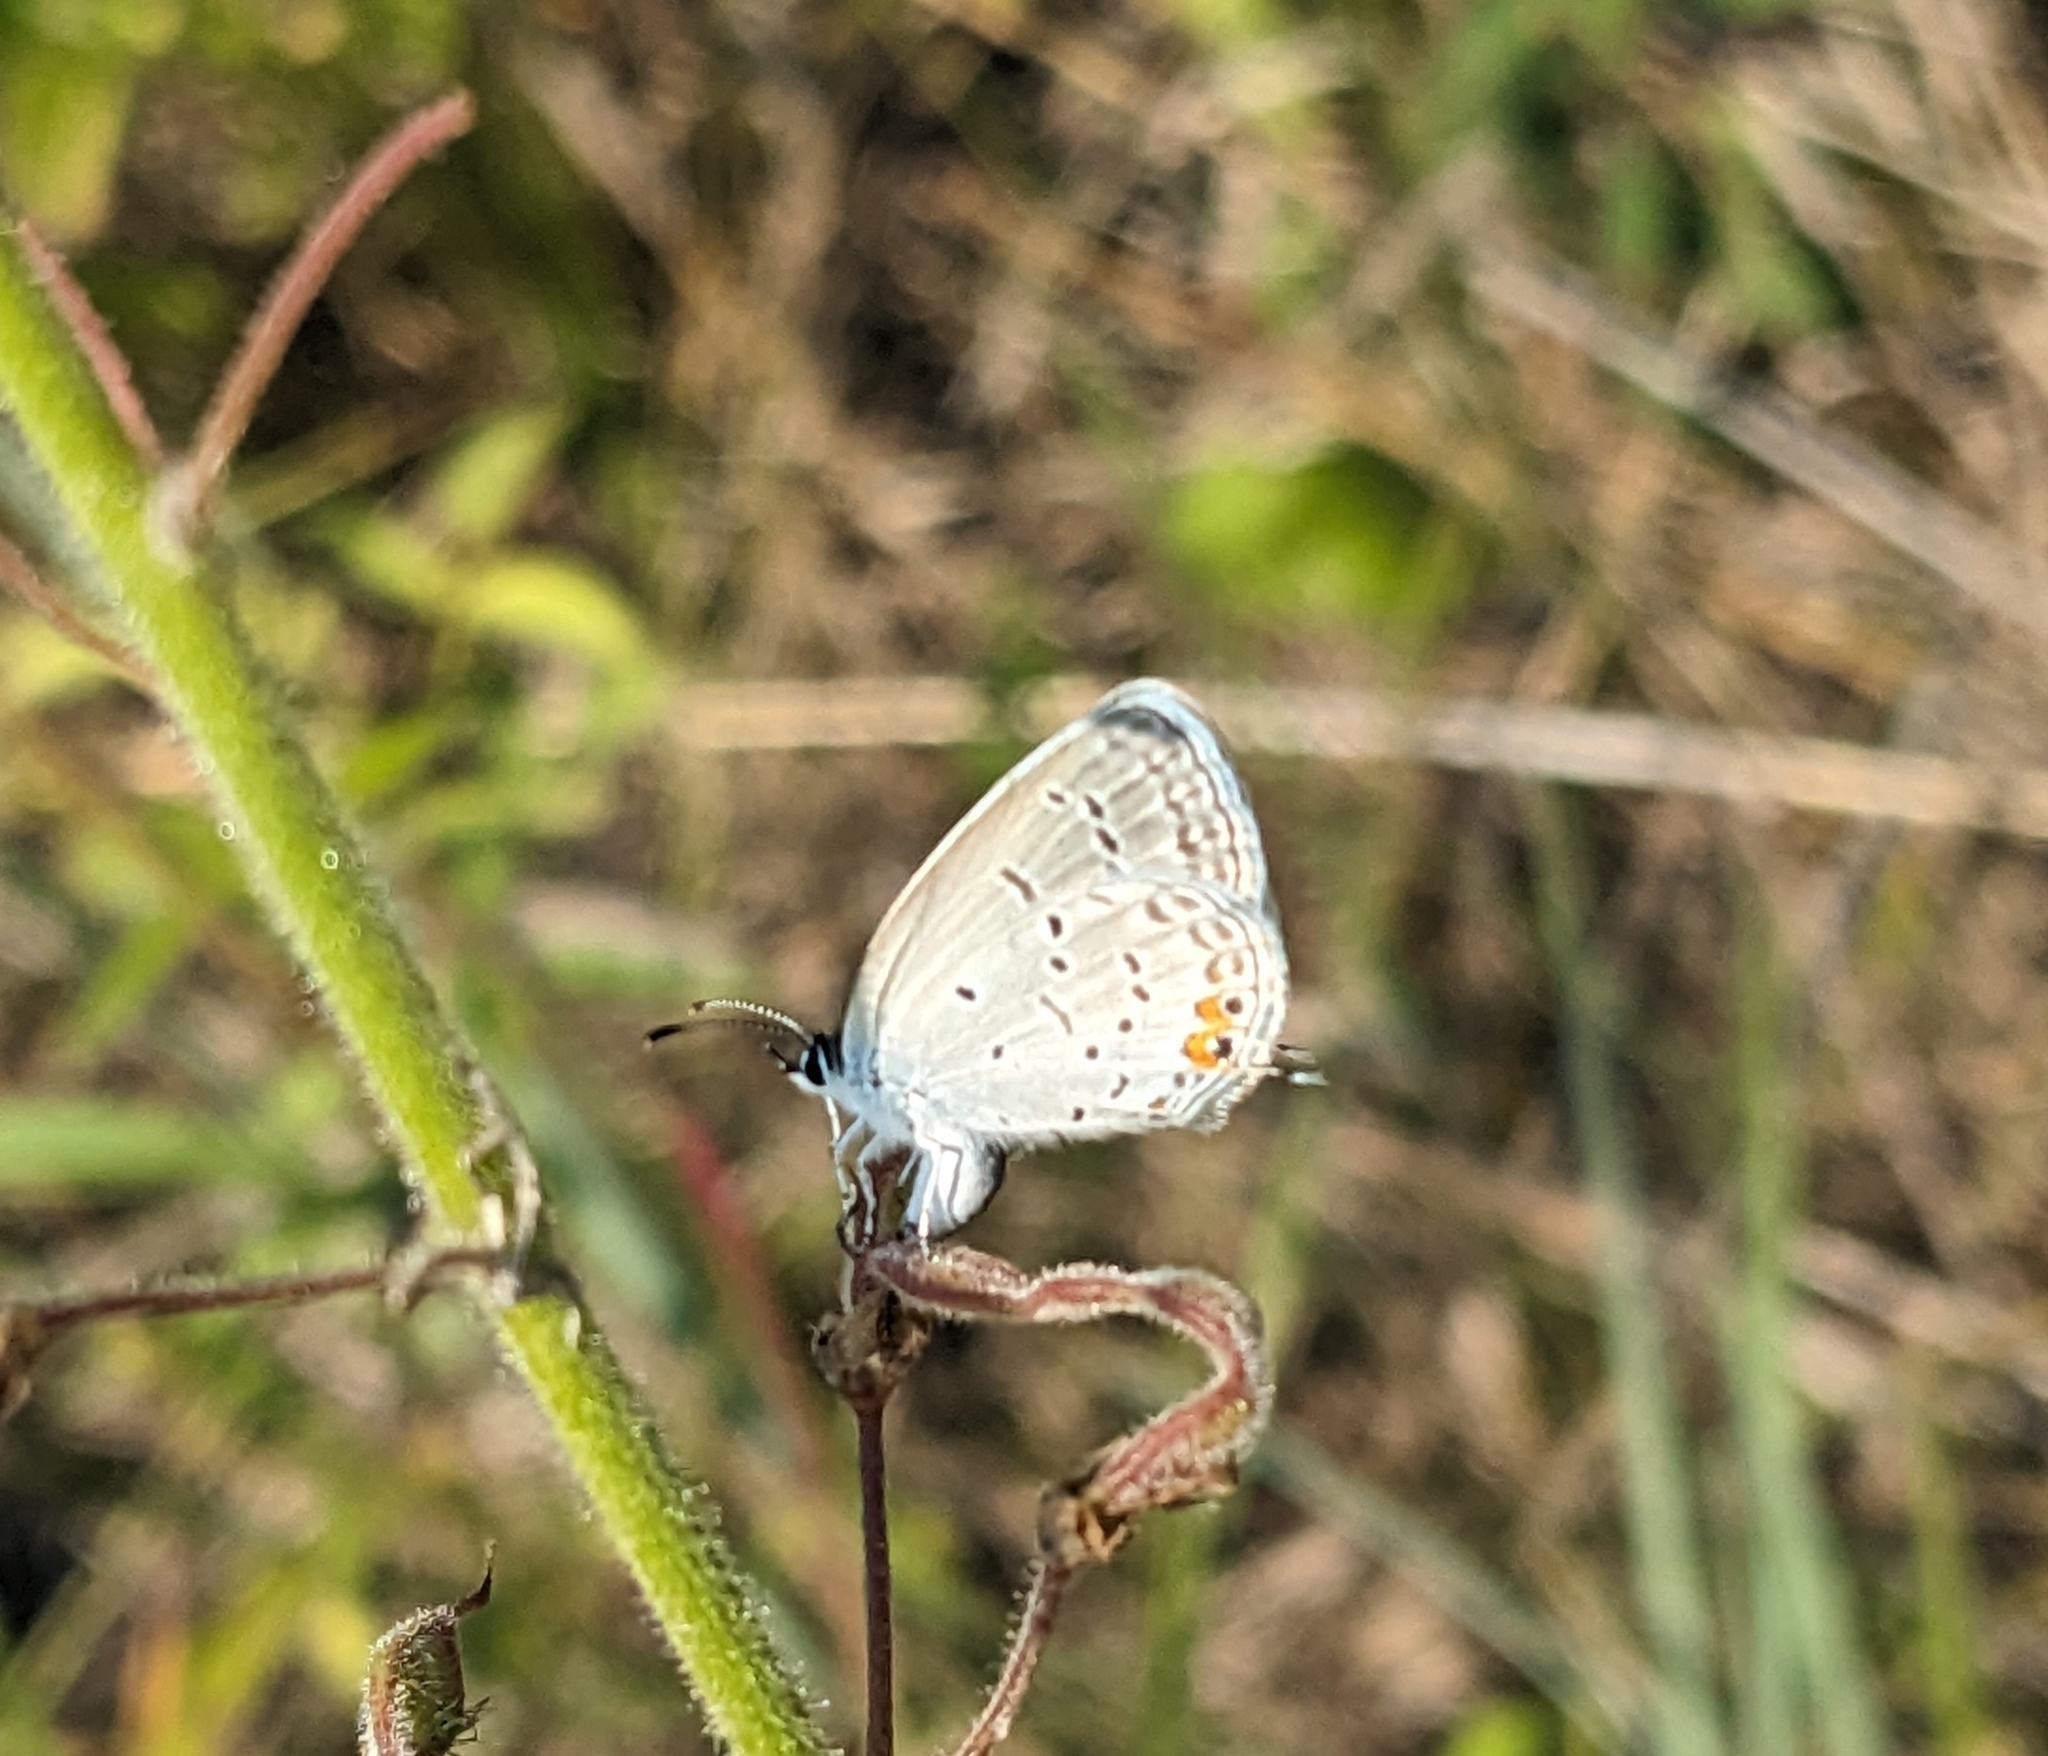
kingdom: Animalia
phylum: Arthropoda
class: Insecta
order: Lepidoptera
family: Lycaenidae
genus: Elkalyce
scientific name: Elkalyce comyntas
